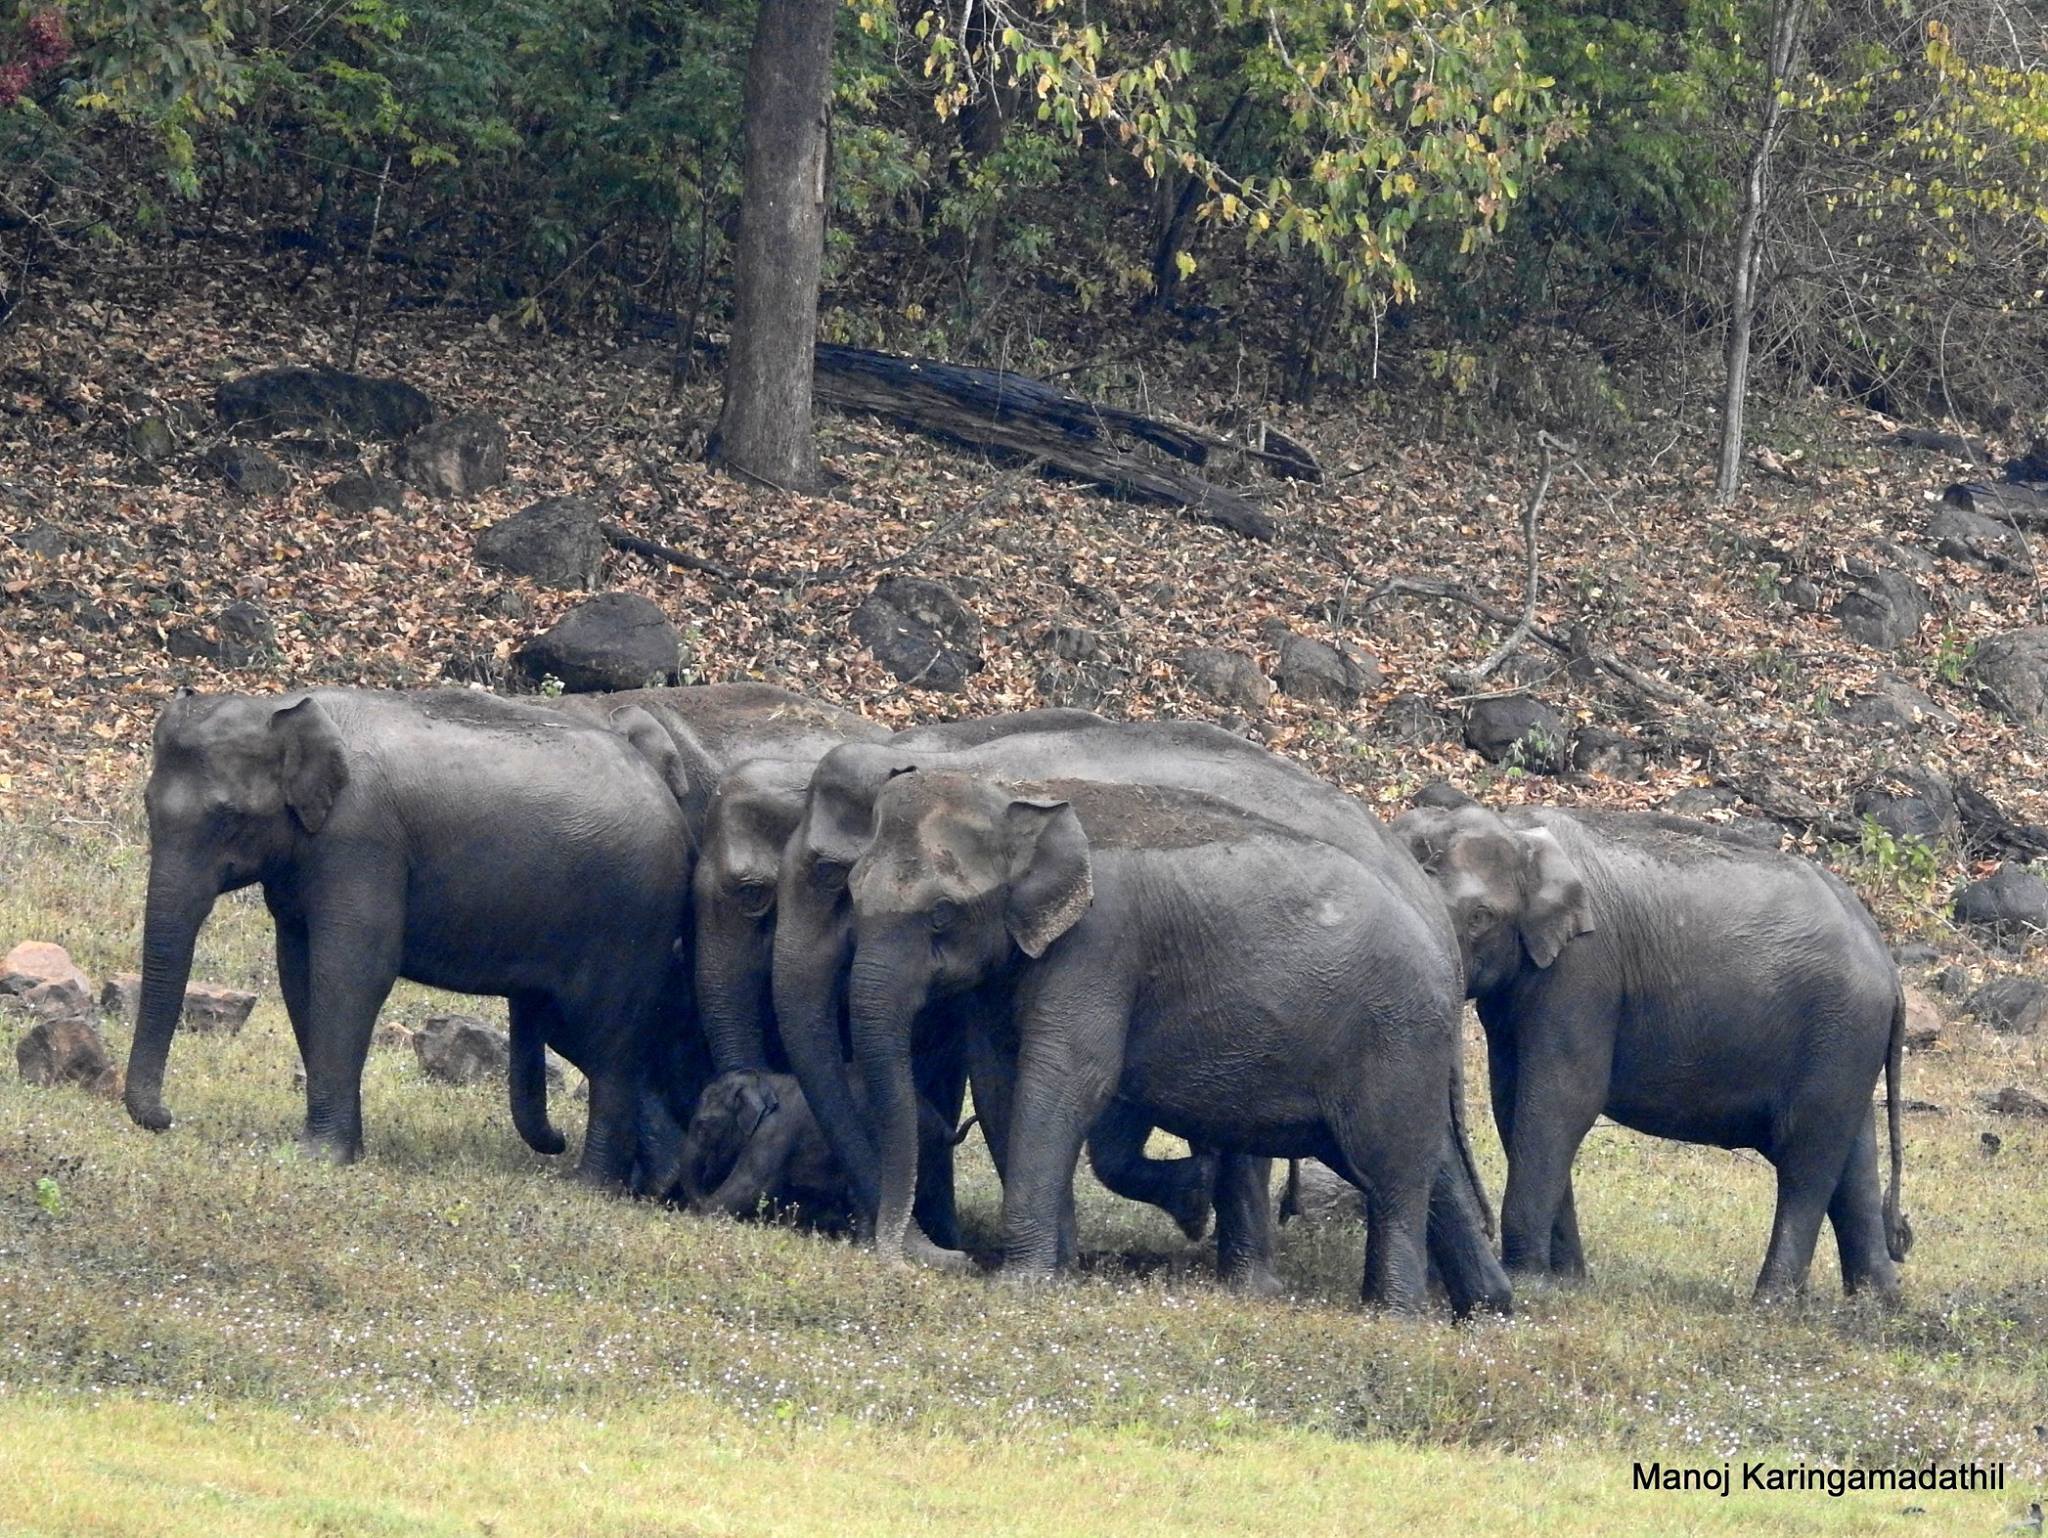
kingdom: Animalia
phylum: Chordata
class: Mammalia
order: Proboscidea
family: Elephantidae
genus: Elephas
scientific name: Elephas maximus
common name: Asian elephant
